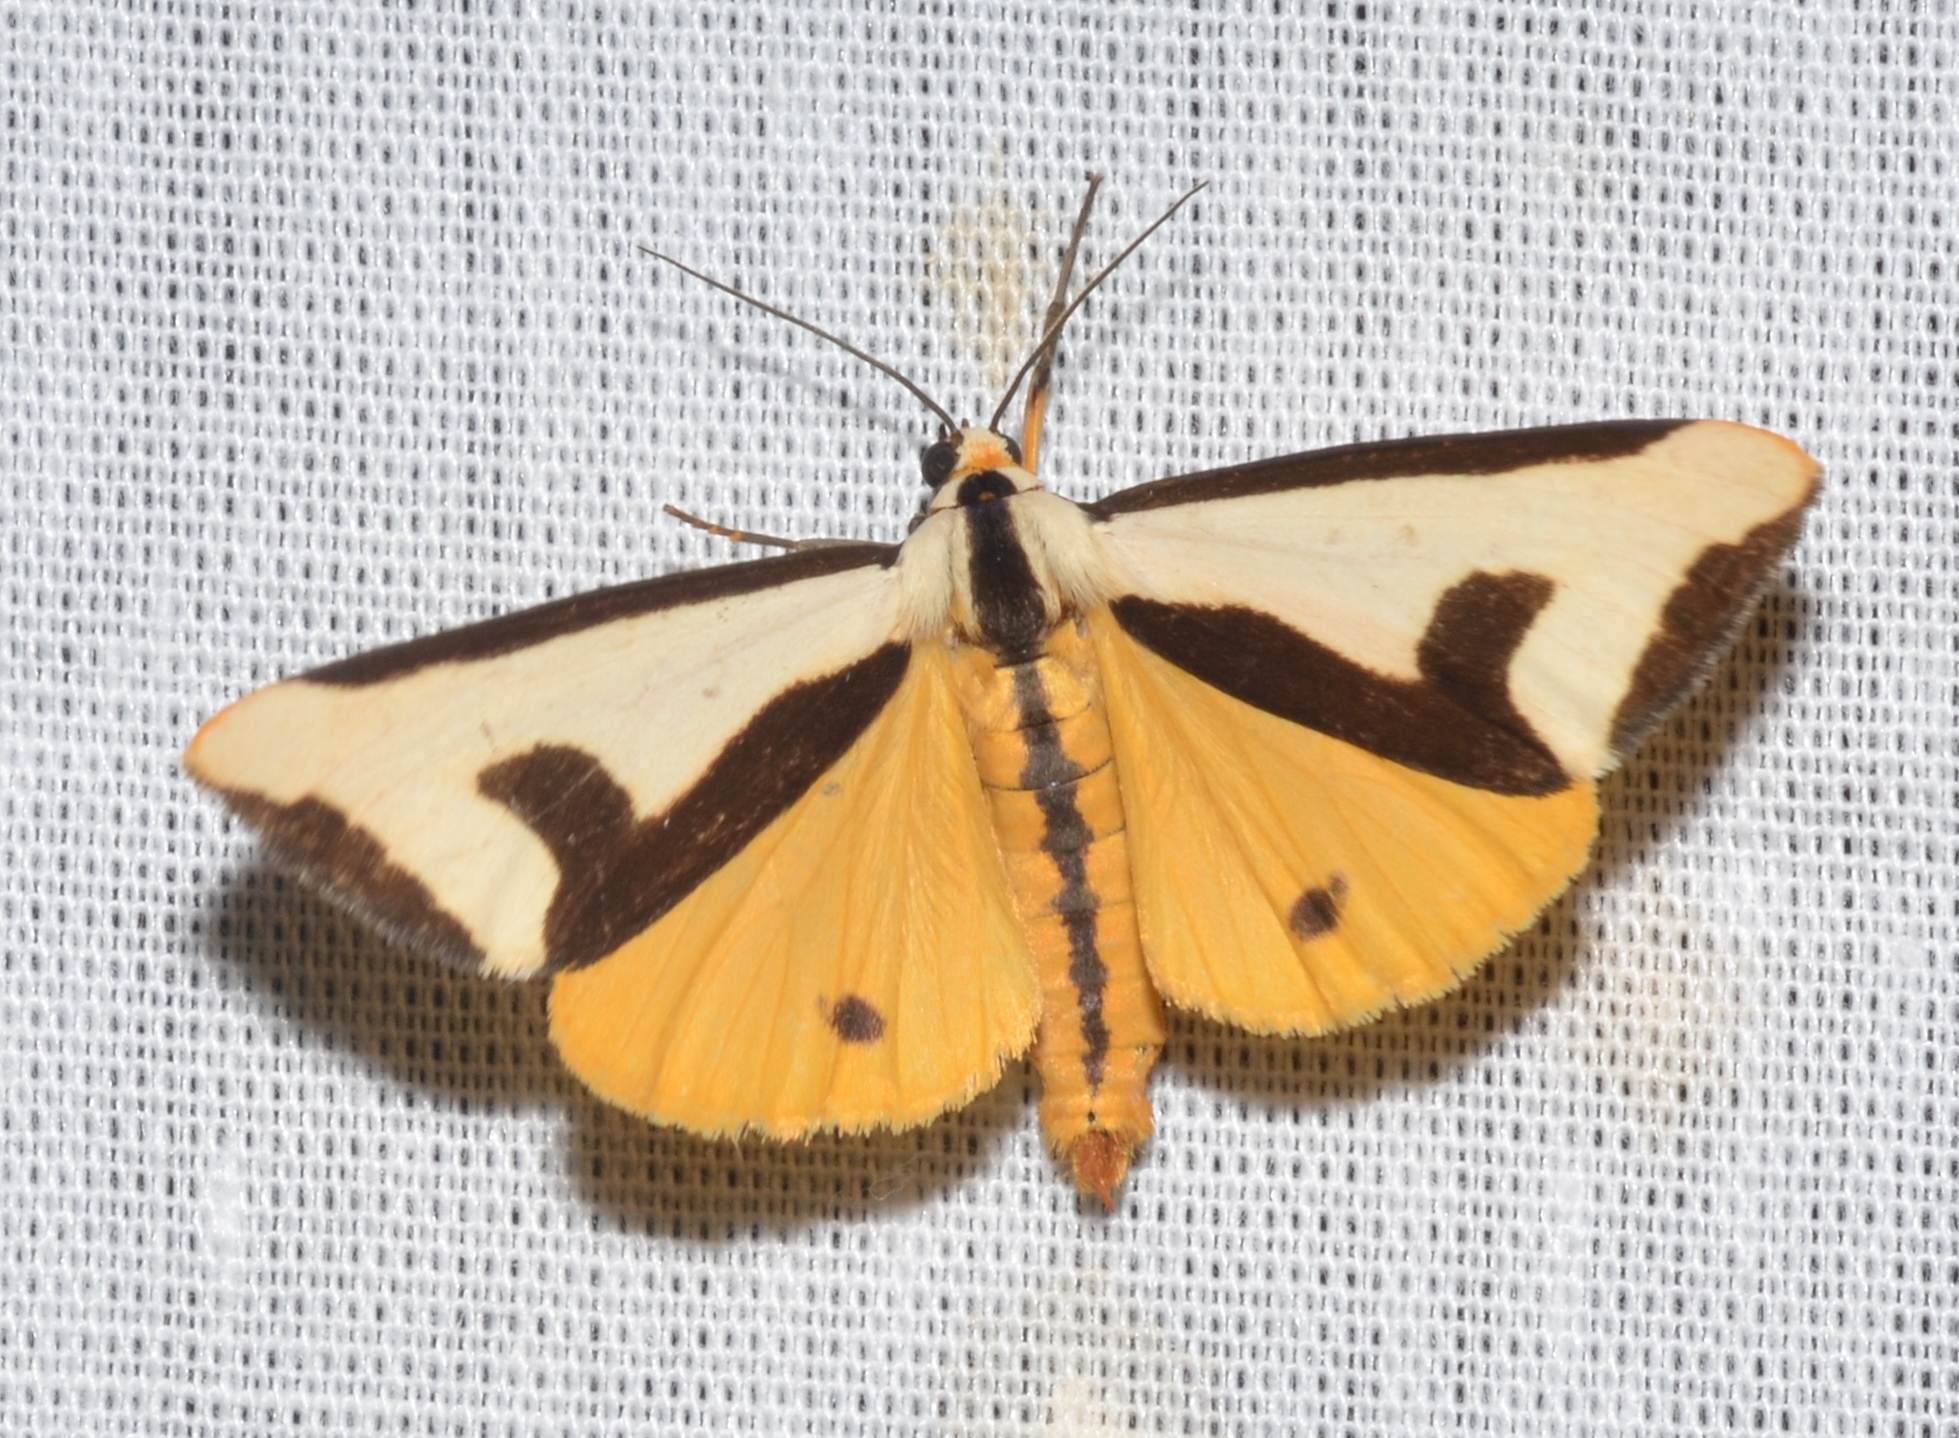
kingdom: Animalia
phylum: Arthropoda
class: Insecta
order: Lepidoptera
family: Erebidae
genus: Haploa
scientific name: Haploa clymene
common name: Clymene moth
